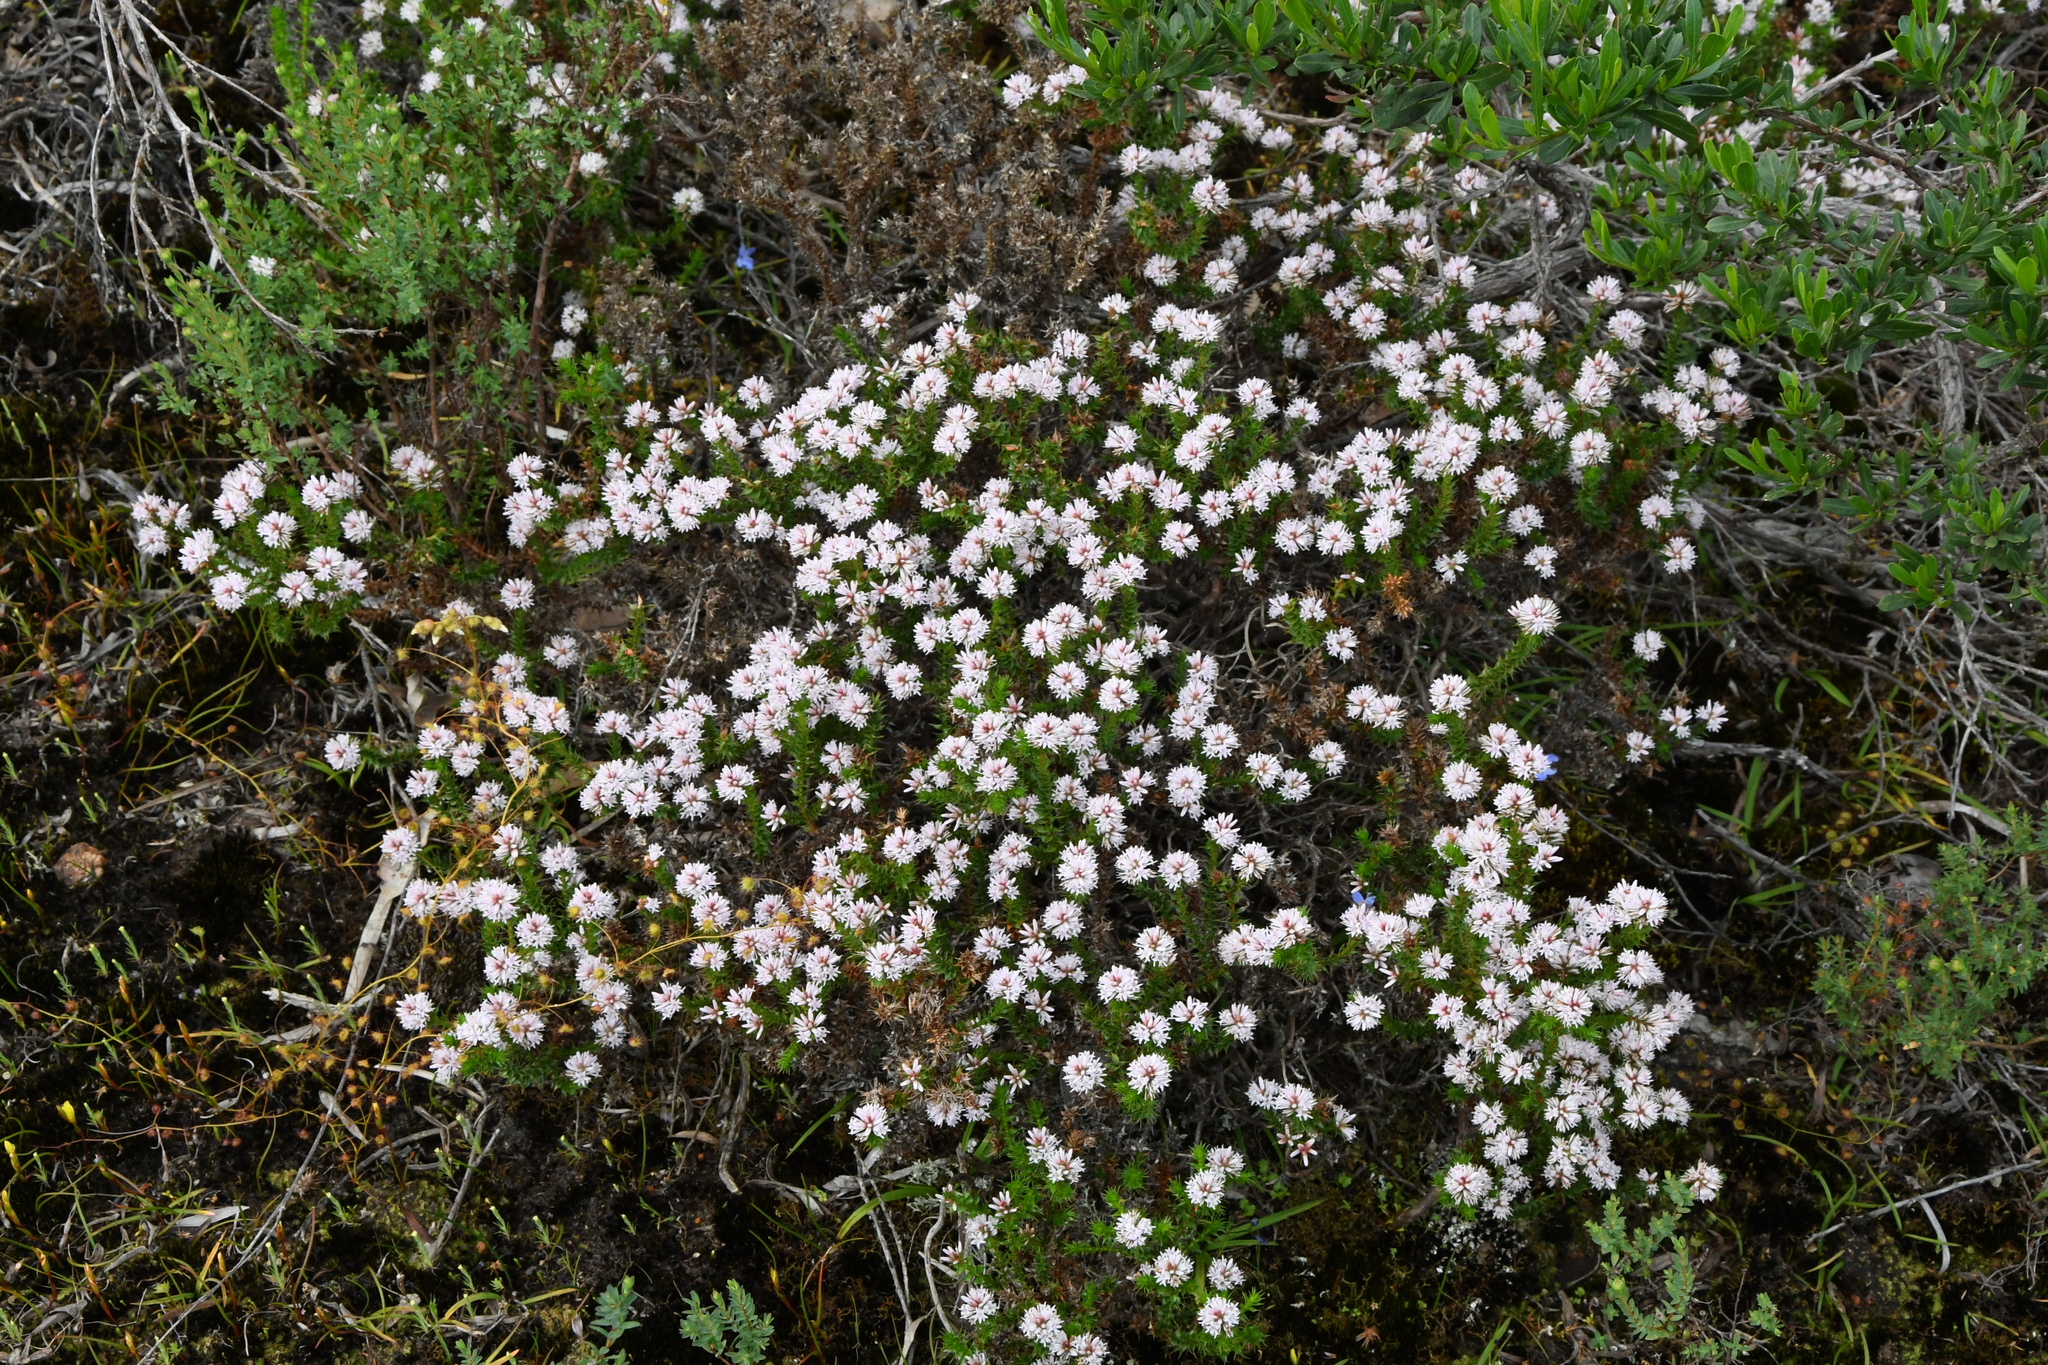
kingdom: Plantae
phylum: Tracheophyta
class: Magnoliopsida
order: Ericales
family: Ericaceae
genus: Andersonia
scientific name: Andersonia sprengelioides
